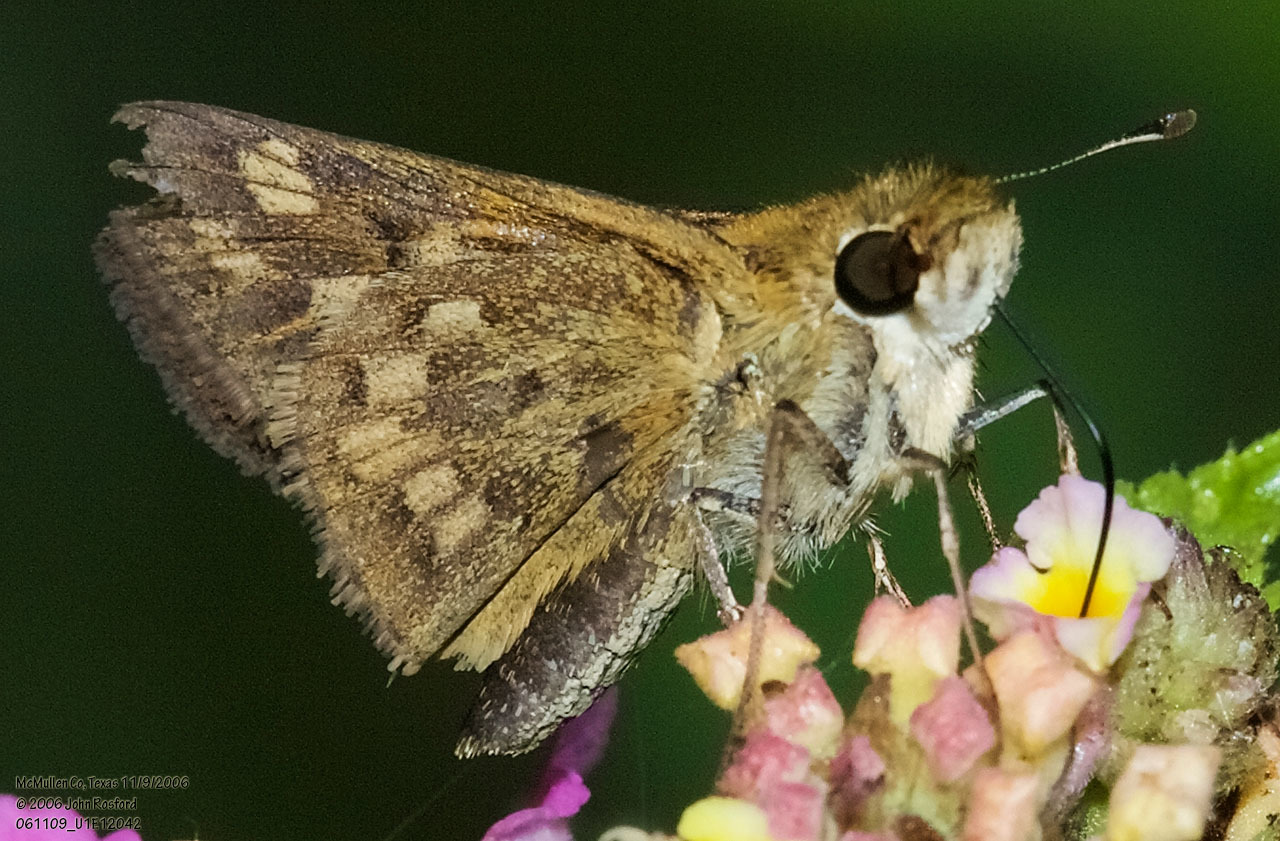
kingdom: Animalia
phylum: Arthropoda
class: Insecta
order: Lepidoptera
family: Hesperiidae
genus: Hylephila
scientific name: Hylephila phyleus
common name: Fiery skipper
